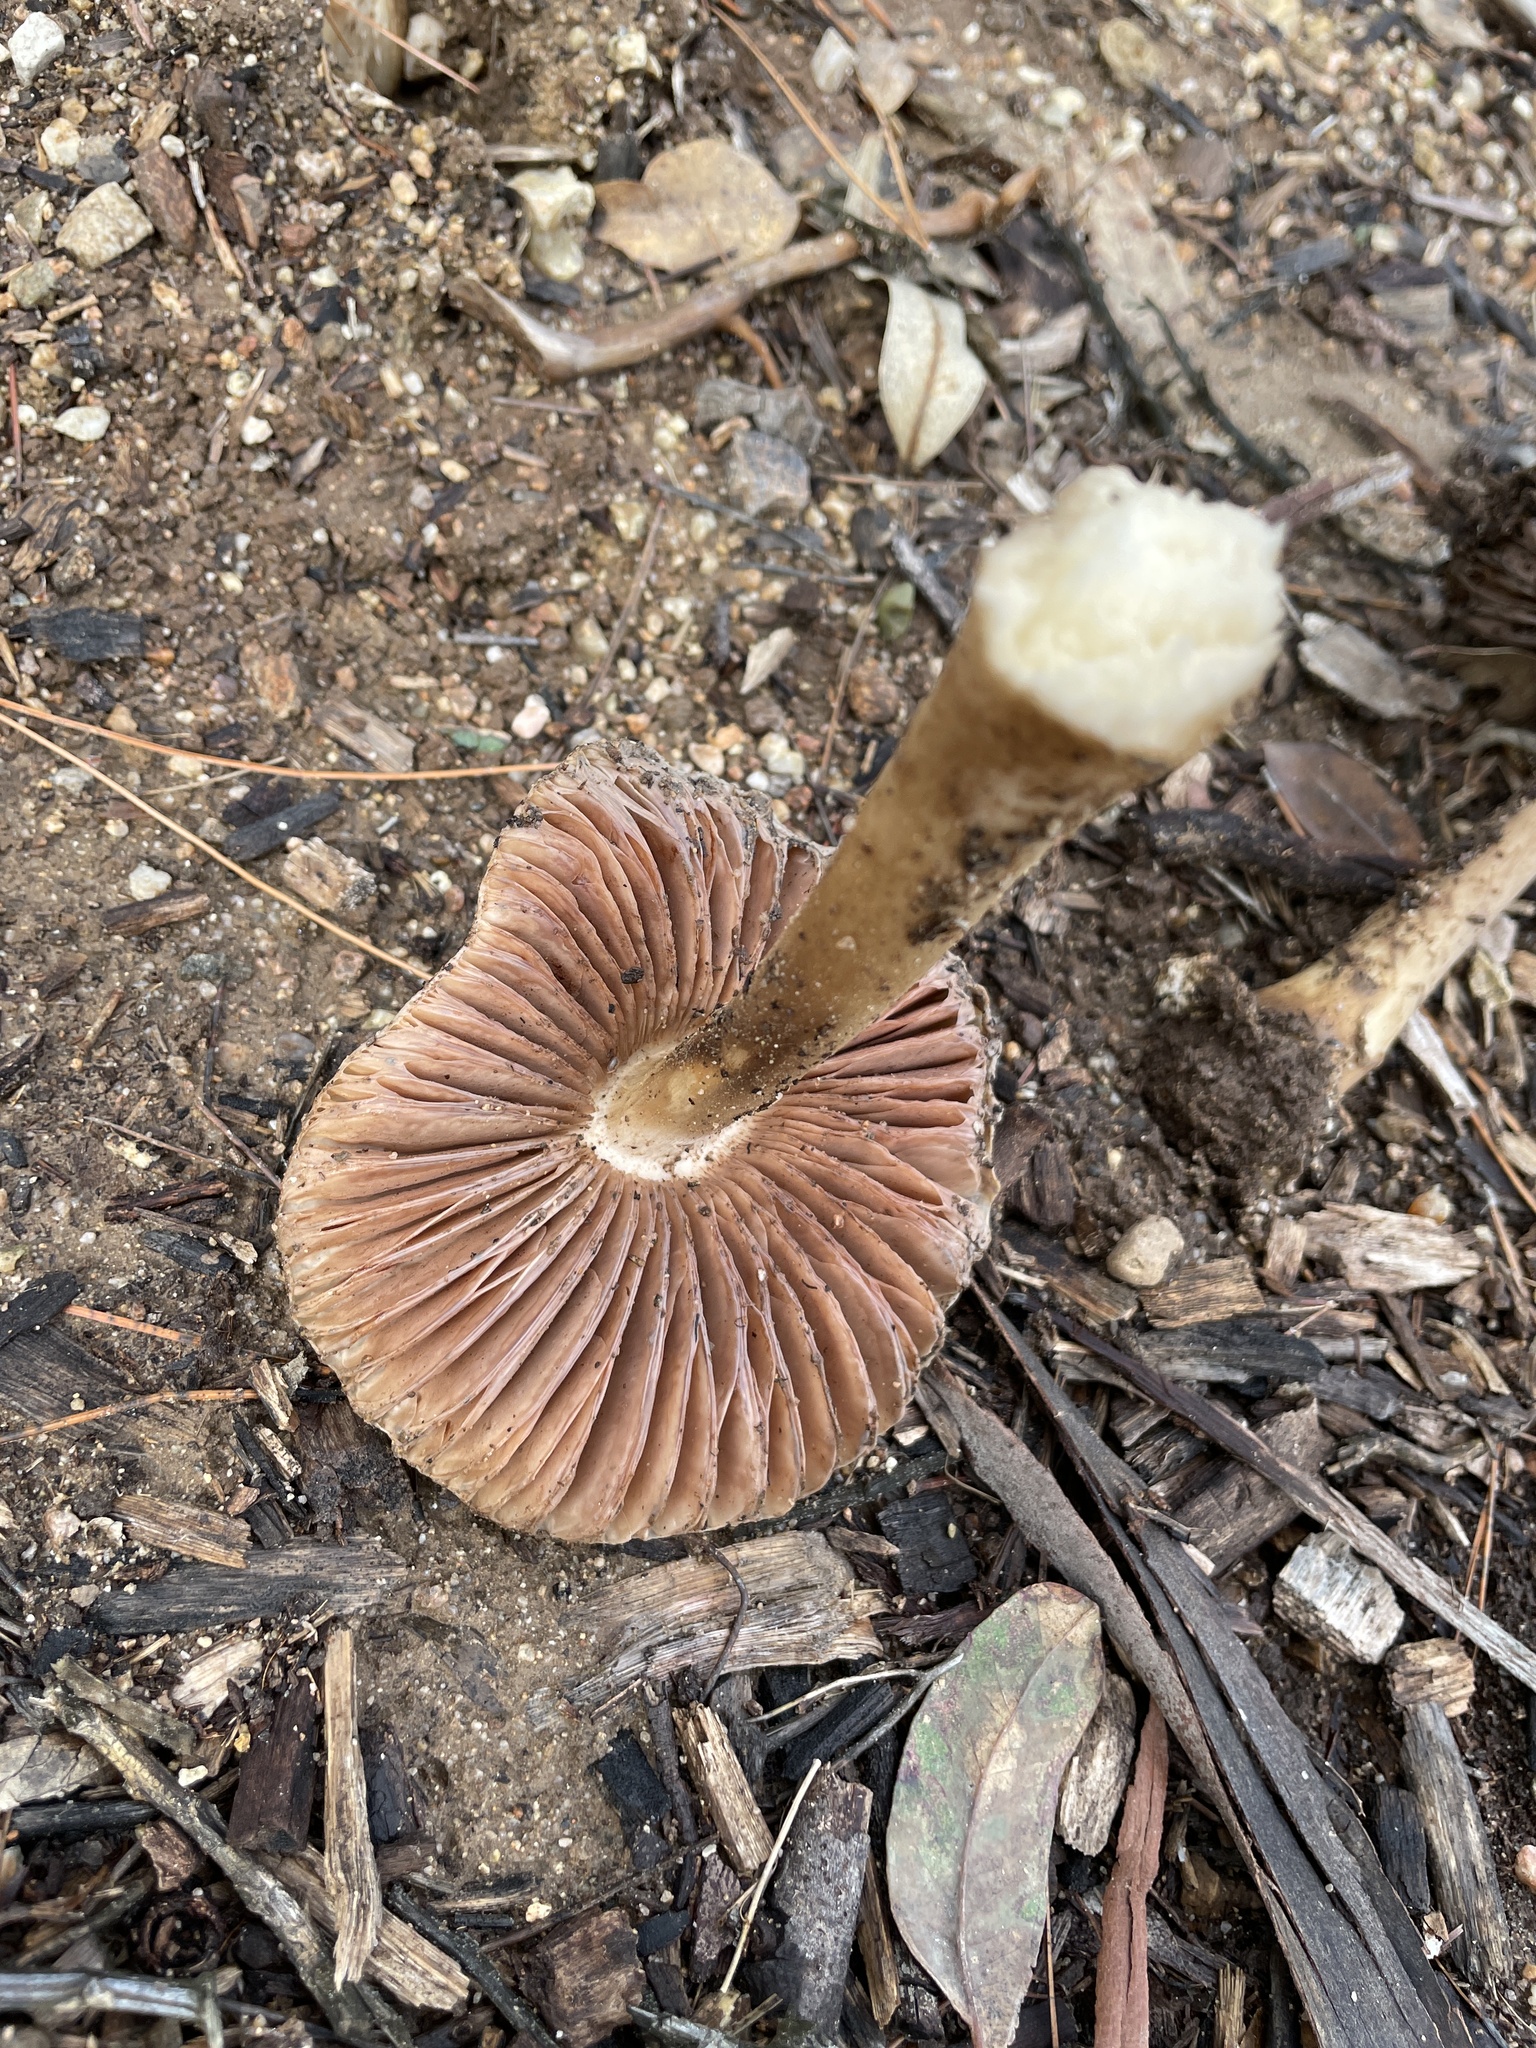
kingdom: Fungi
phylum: Basidiomycota
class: Agaricomycetes
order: Agaricales
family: Pluteaceae
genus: Volvopluteus
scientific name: Volvopluteus gloiocephalus
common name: Stubble rosegill
